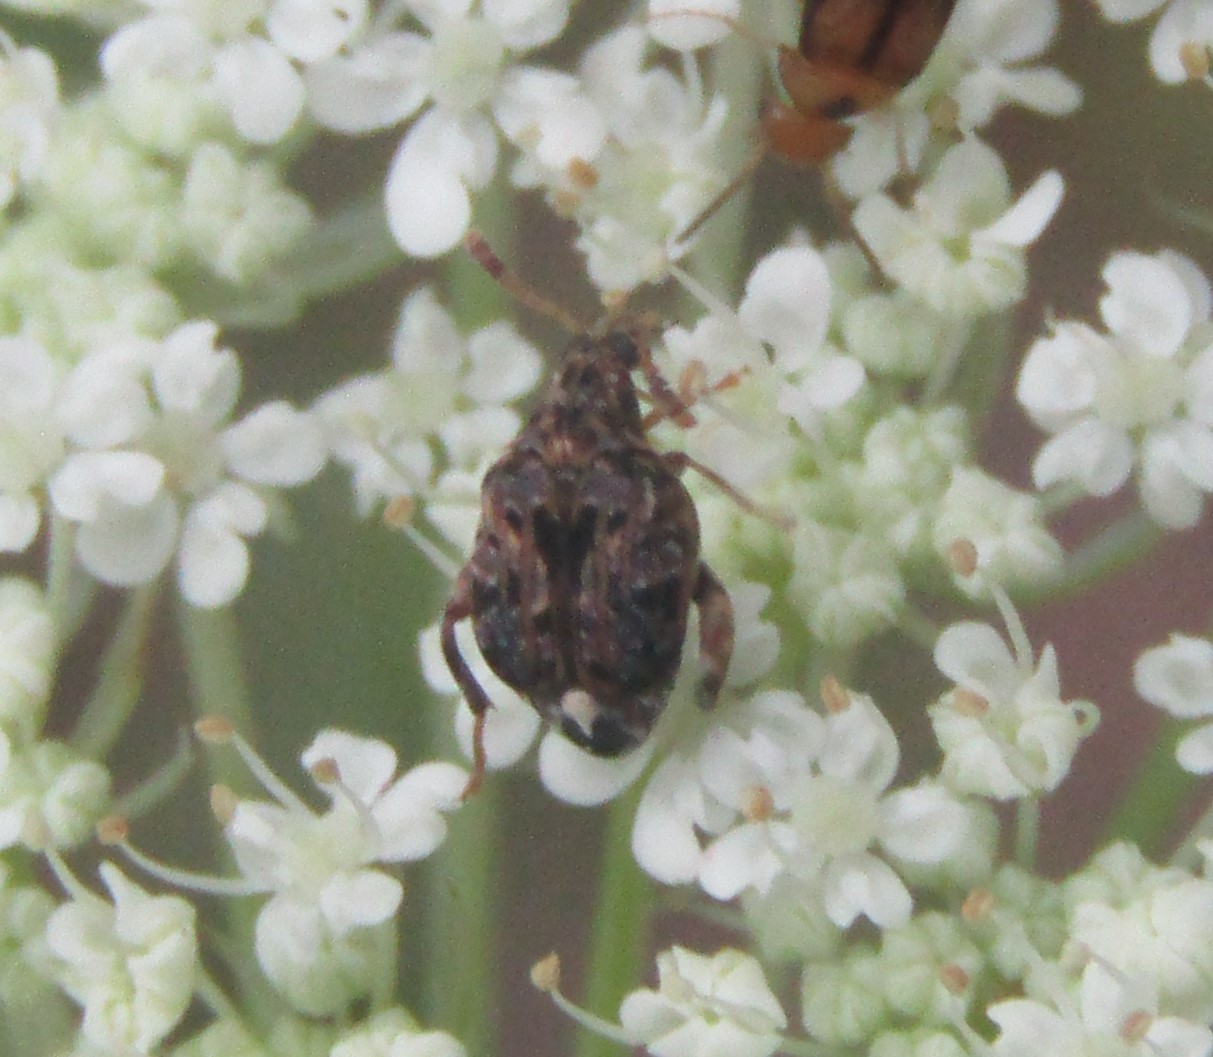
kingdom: Animalia
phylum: Arthropoda
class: Insecta
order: Coleoptera
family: Chrysomelidae
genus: Gibbobruchus
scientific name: Gibbobruchus mimus
